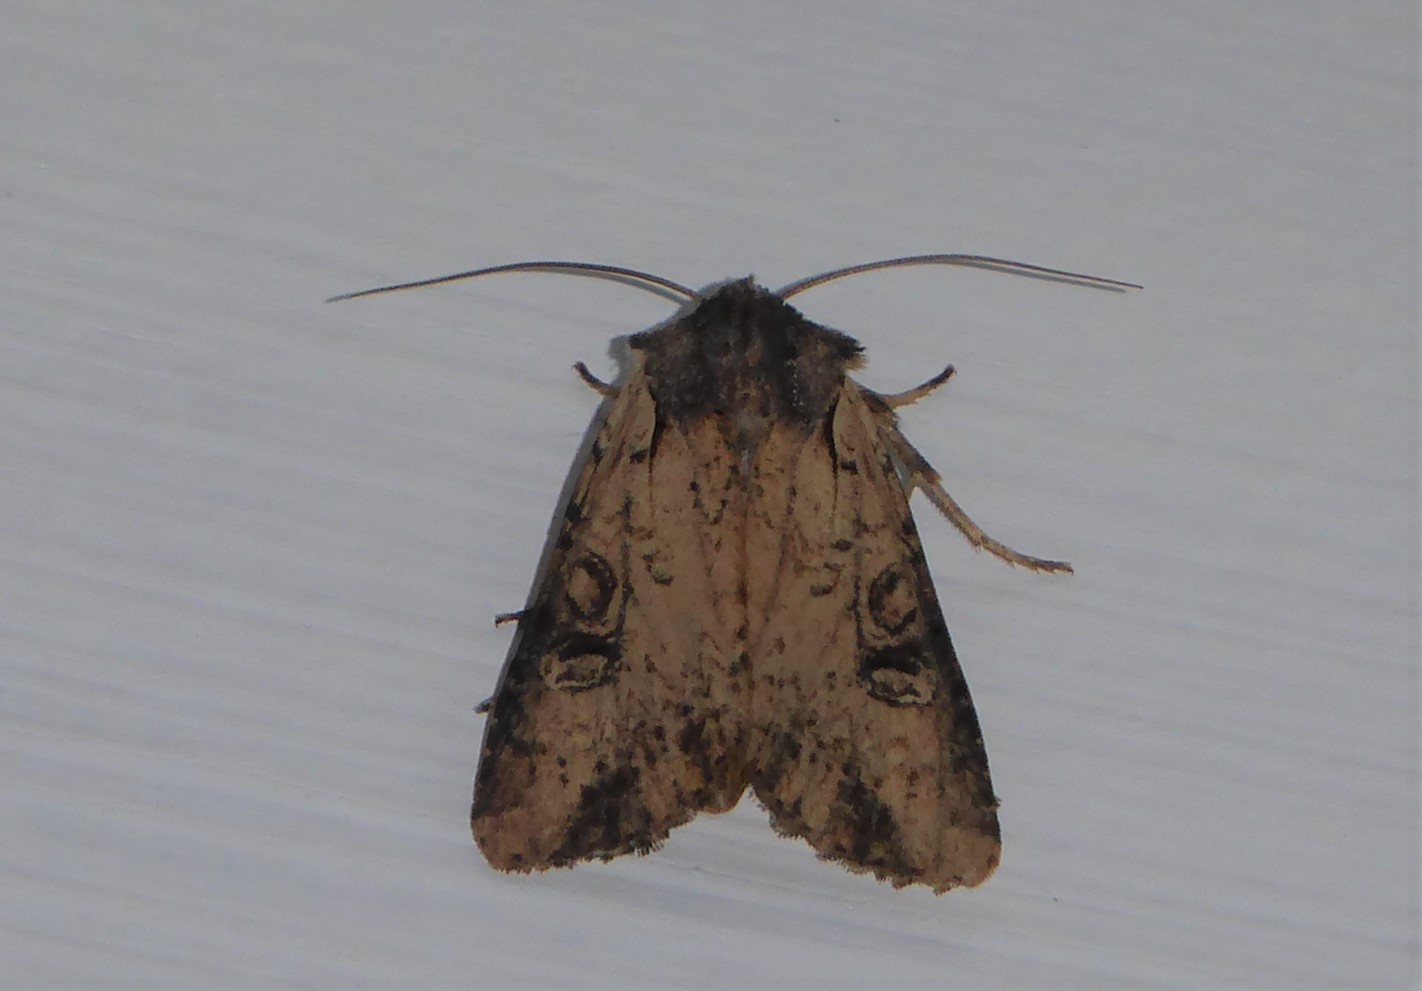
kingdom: Animalia
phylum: Arthropoda
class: Insecta
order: Lepidoptera
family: Noctuidae
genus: Ichneutica
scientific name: Ichneutica omoplaca
